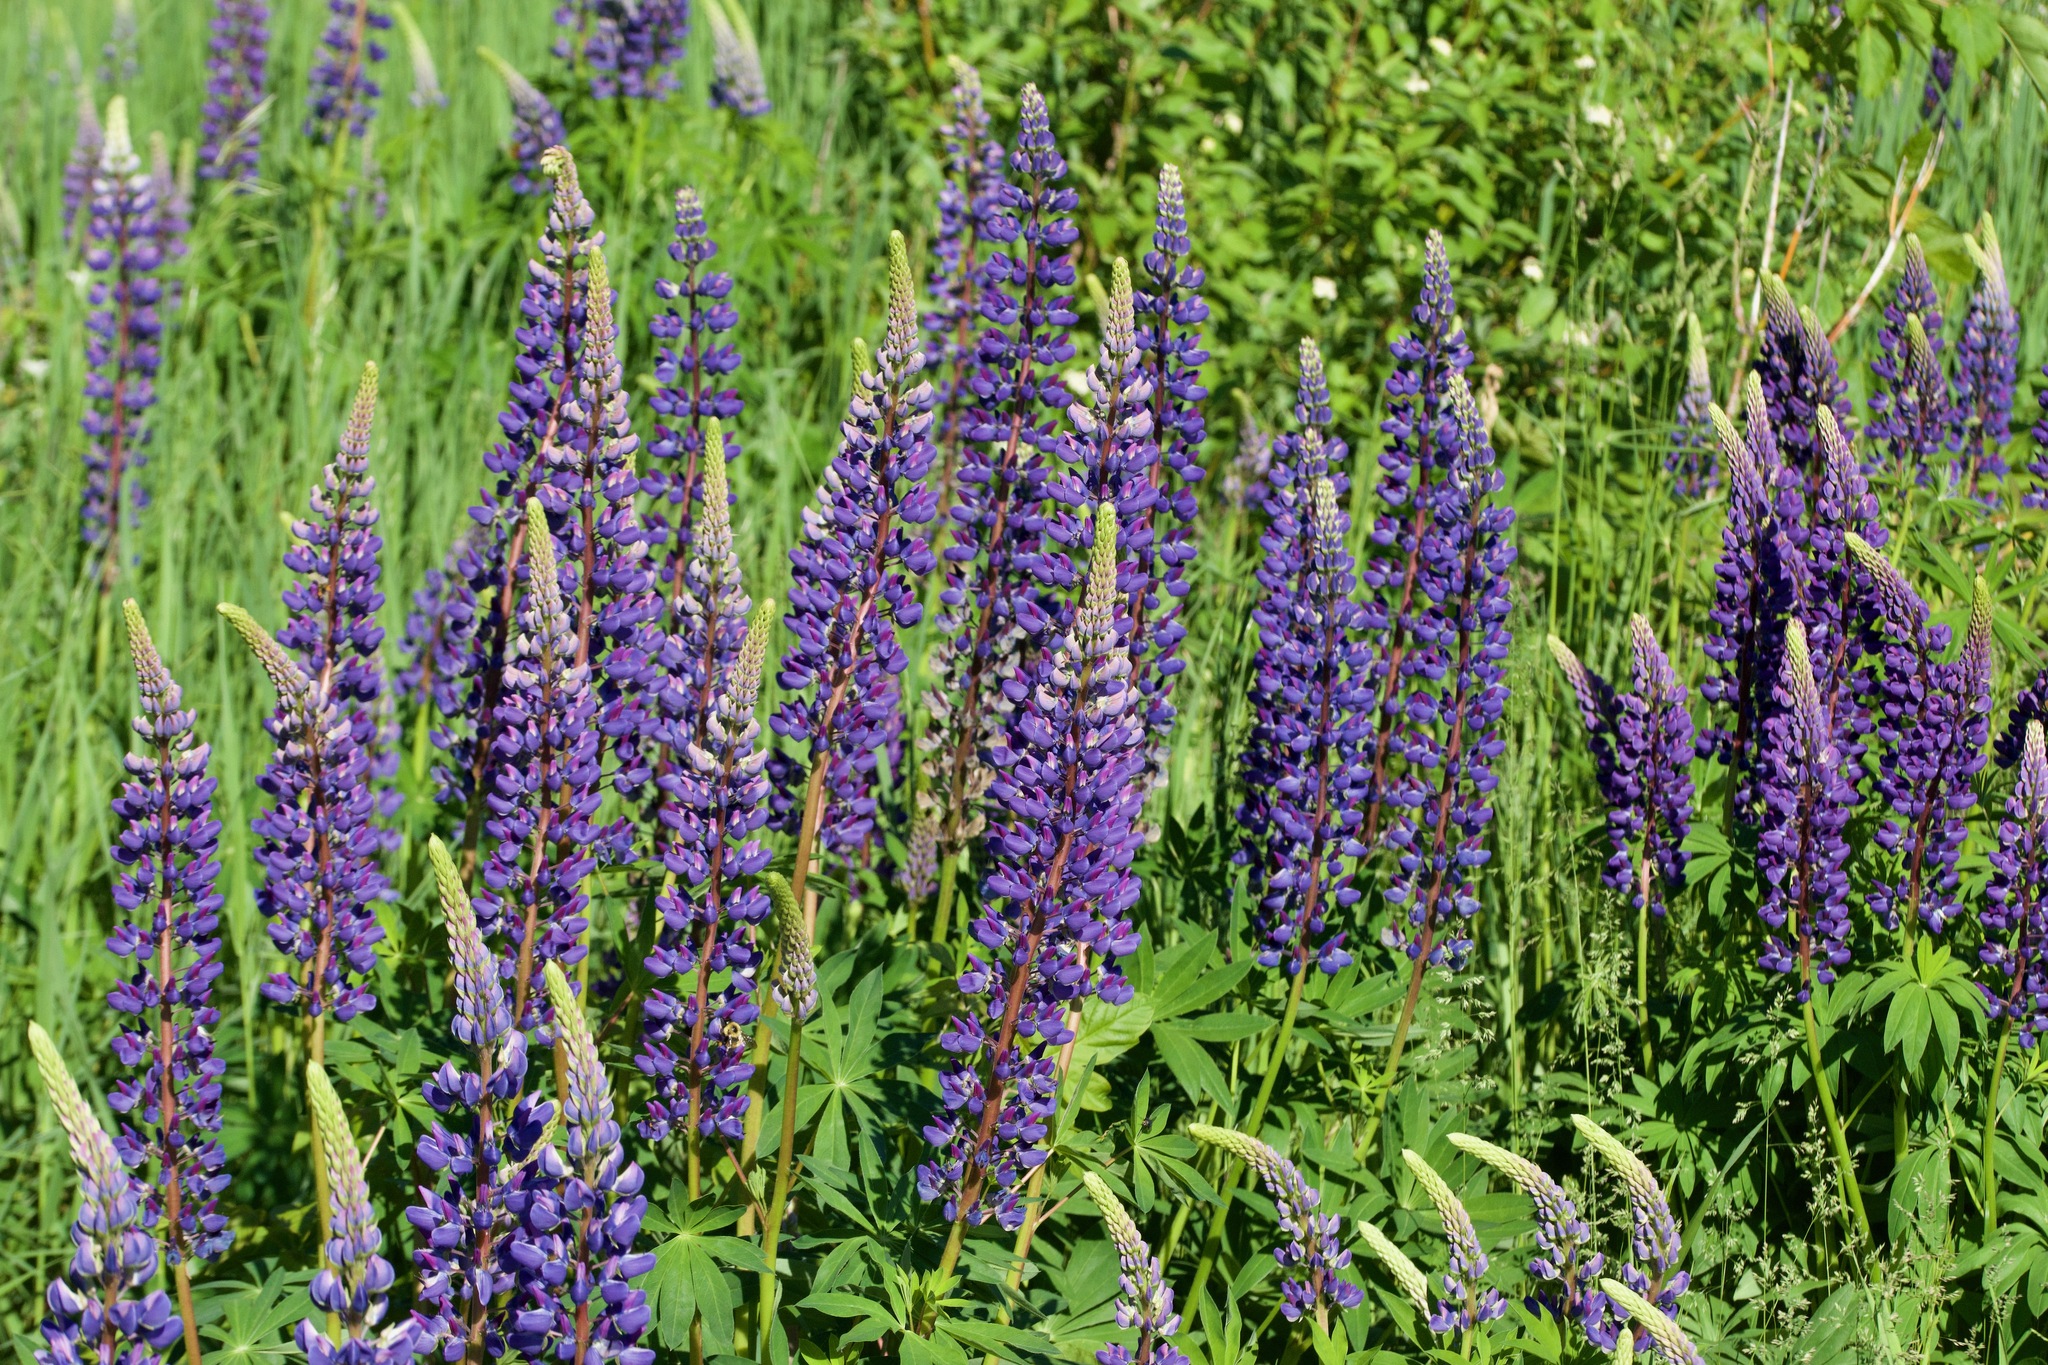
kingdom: Plantae
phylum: Tracheophyta
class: Magnoliopsida
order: Fabales
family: Fabaceae
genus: Lupinus
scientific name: Lupinus polyphyllus
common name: Garden lupin
